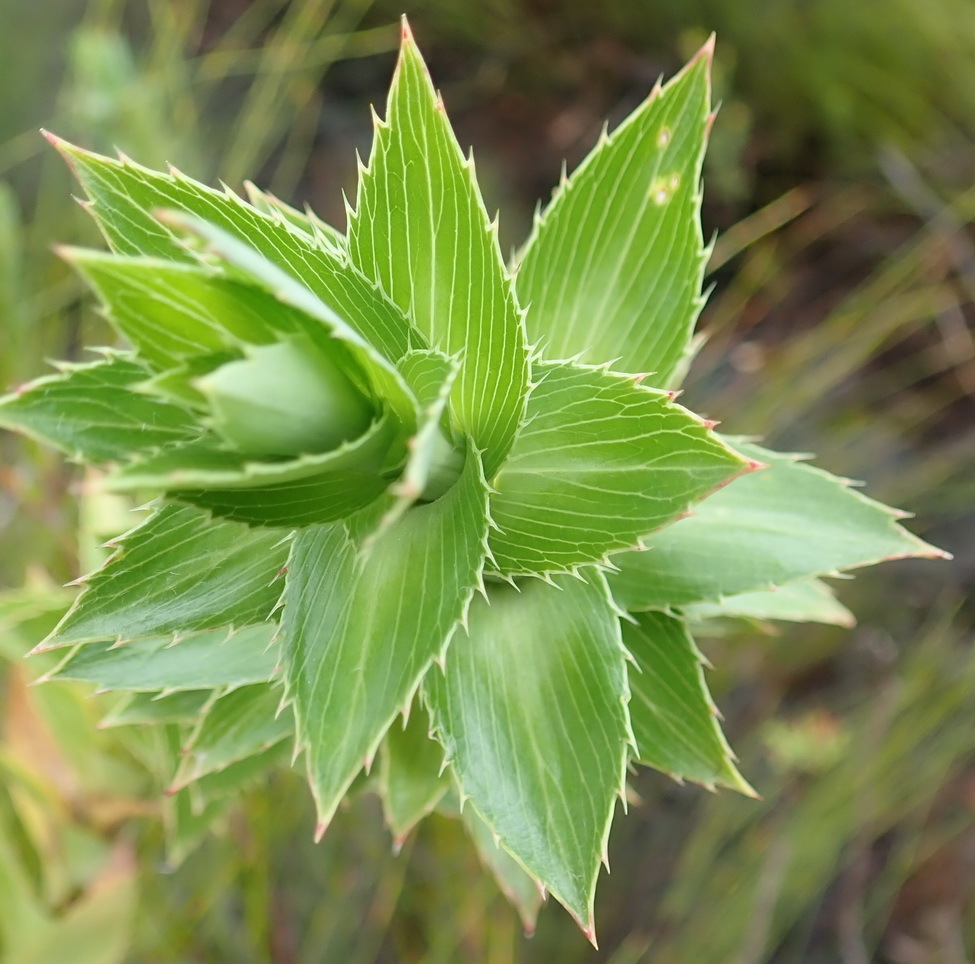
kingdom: Plantae
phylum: Tracheophyta
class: Magnoliopsida
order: Rosales
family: Rosaceae
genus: Cliffortia
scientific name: Cliffortia grandifolia
